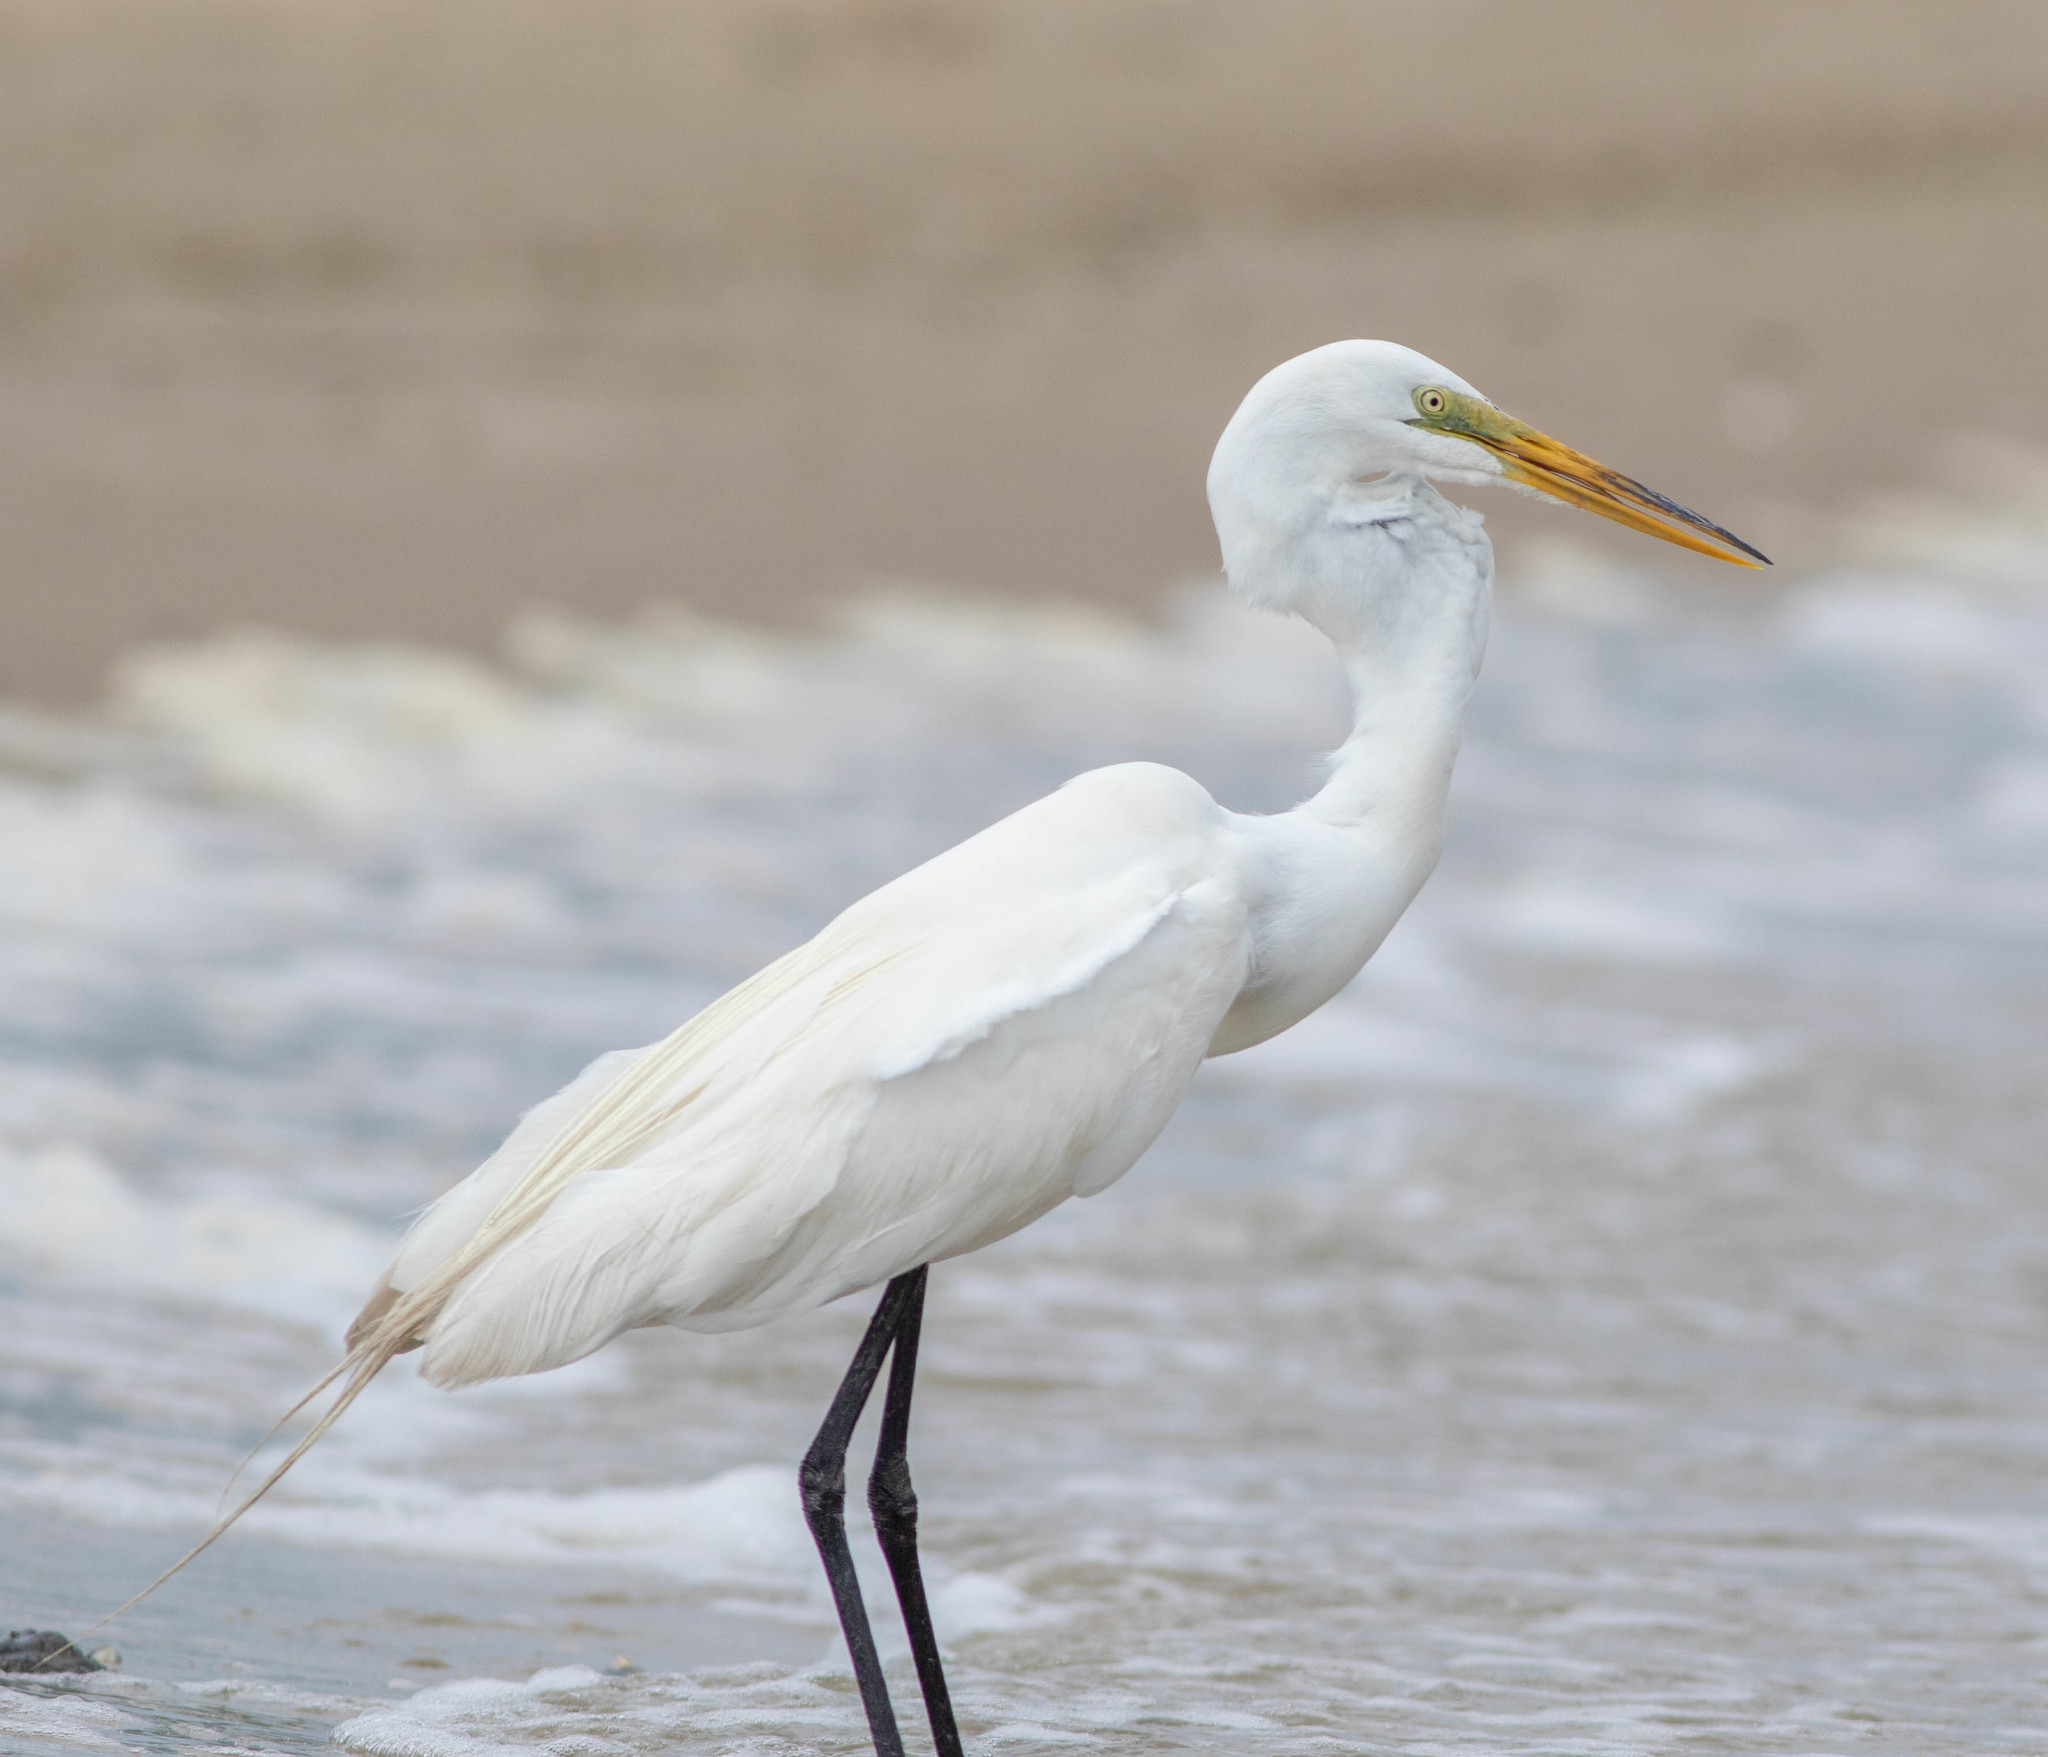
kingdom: Animalia
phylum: Chordata
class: Aves
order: Pelecaniformes
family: Ardeidae
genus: Ardea
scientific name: Ardea alba
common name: Great egret
